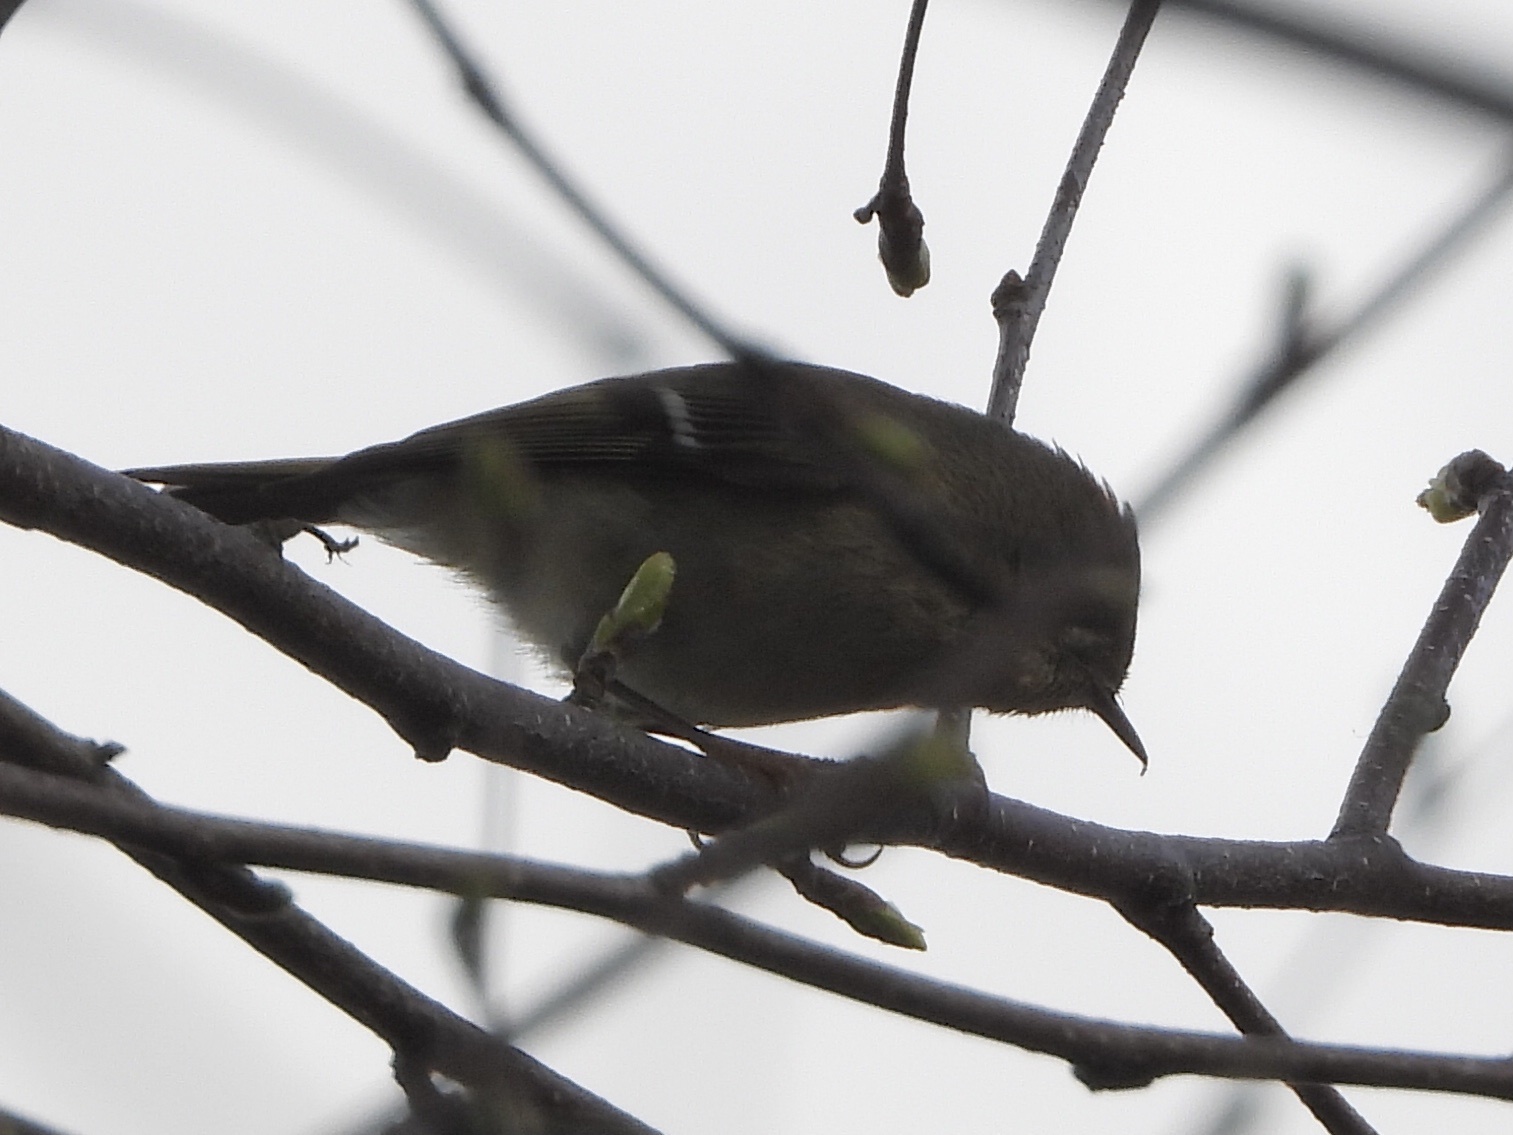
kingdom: Animalia
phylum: Chordata
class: Aves
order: Passeriformes
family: Regulidae
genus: Regulus
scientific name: Regulus calendula
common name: Ruby-crowned kinglet
